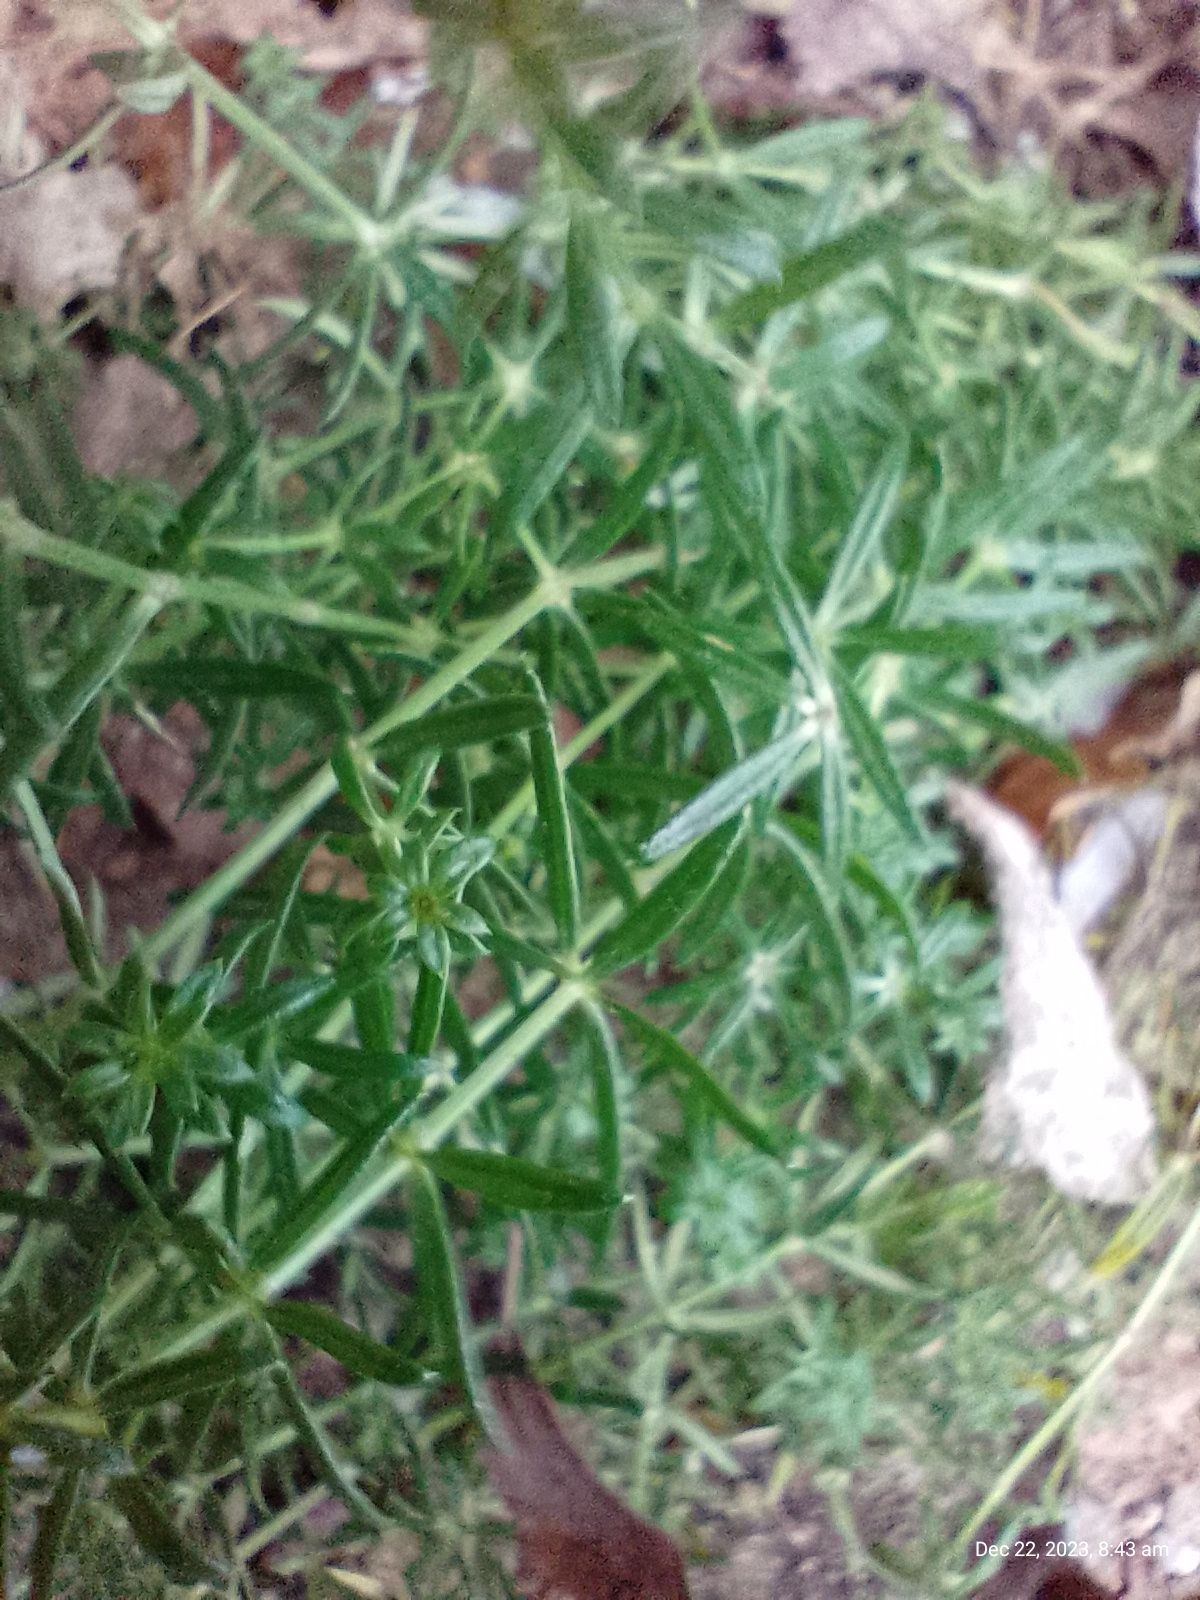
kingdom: Plantae
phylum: Tracheophyta
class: Magnoliopsida
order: Gentianales
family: Rubiaceae
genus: Galium
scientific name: Galium verum
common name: Lady's bedstraw
